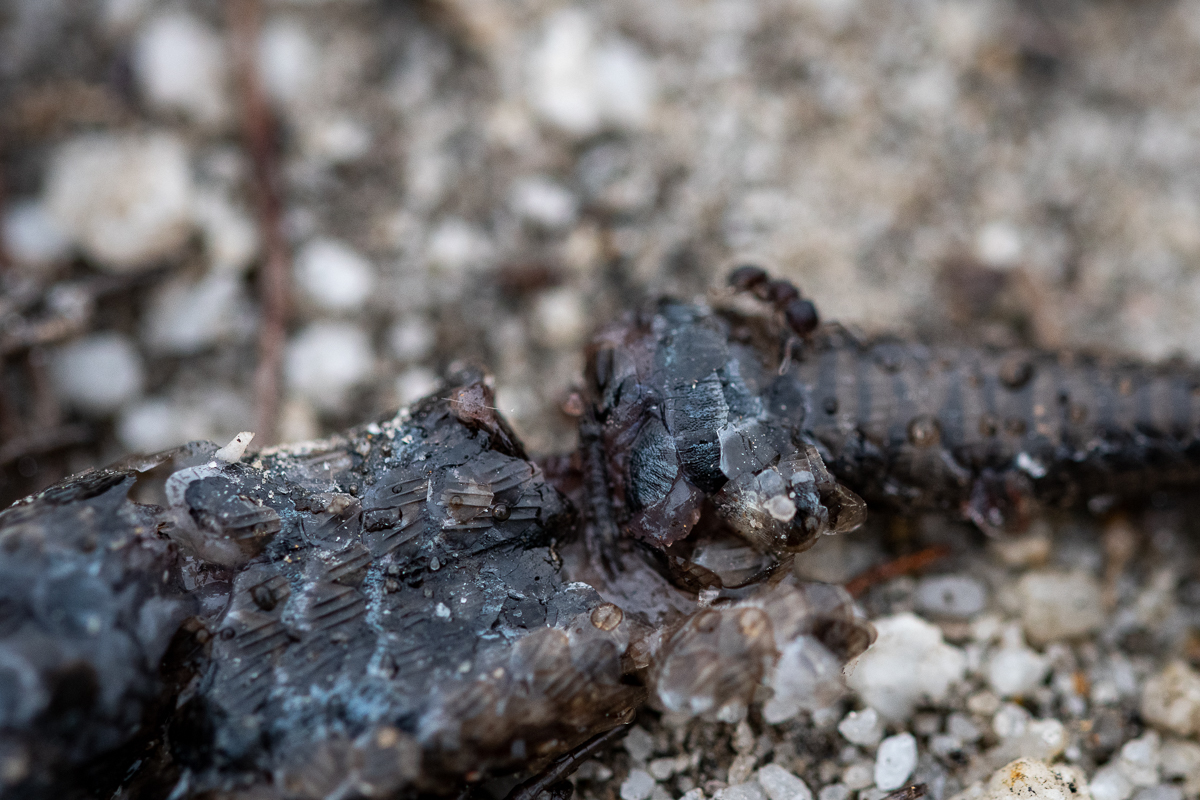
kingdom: Animalia
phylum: Chordata
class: Squamata
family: Scincidae
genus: Trachylepis
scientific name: Trachylepis capensis
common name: Cape skink
